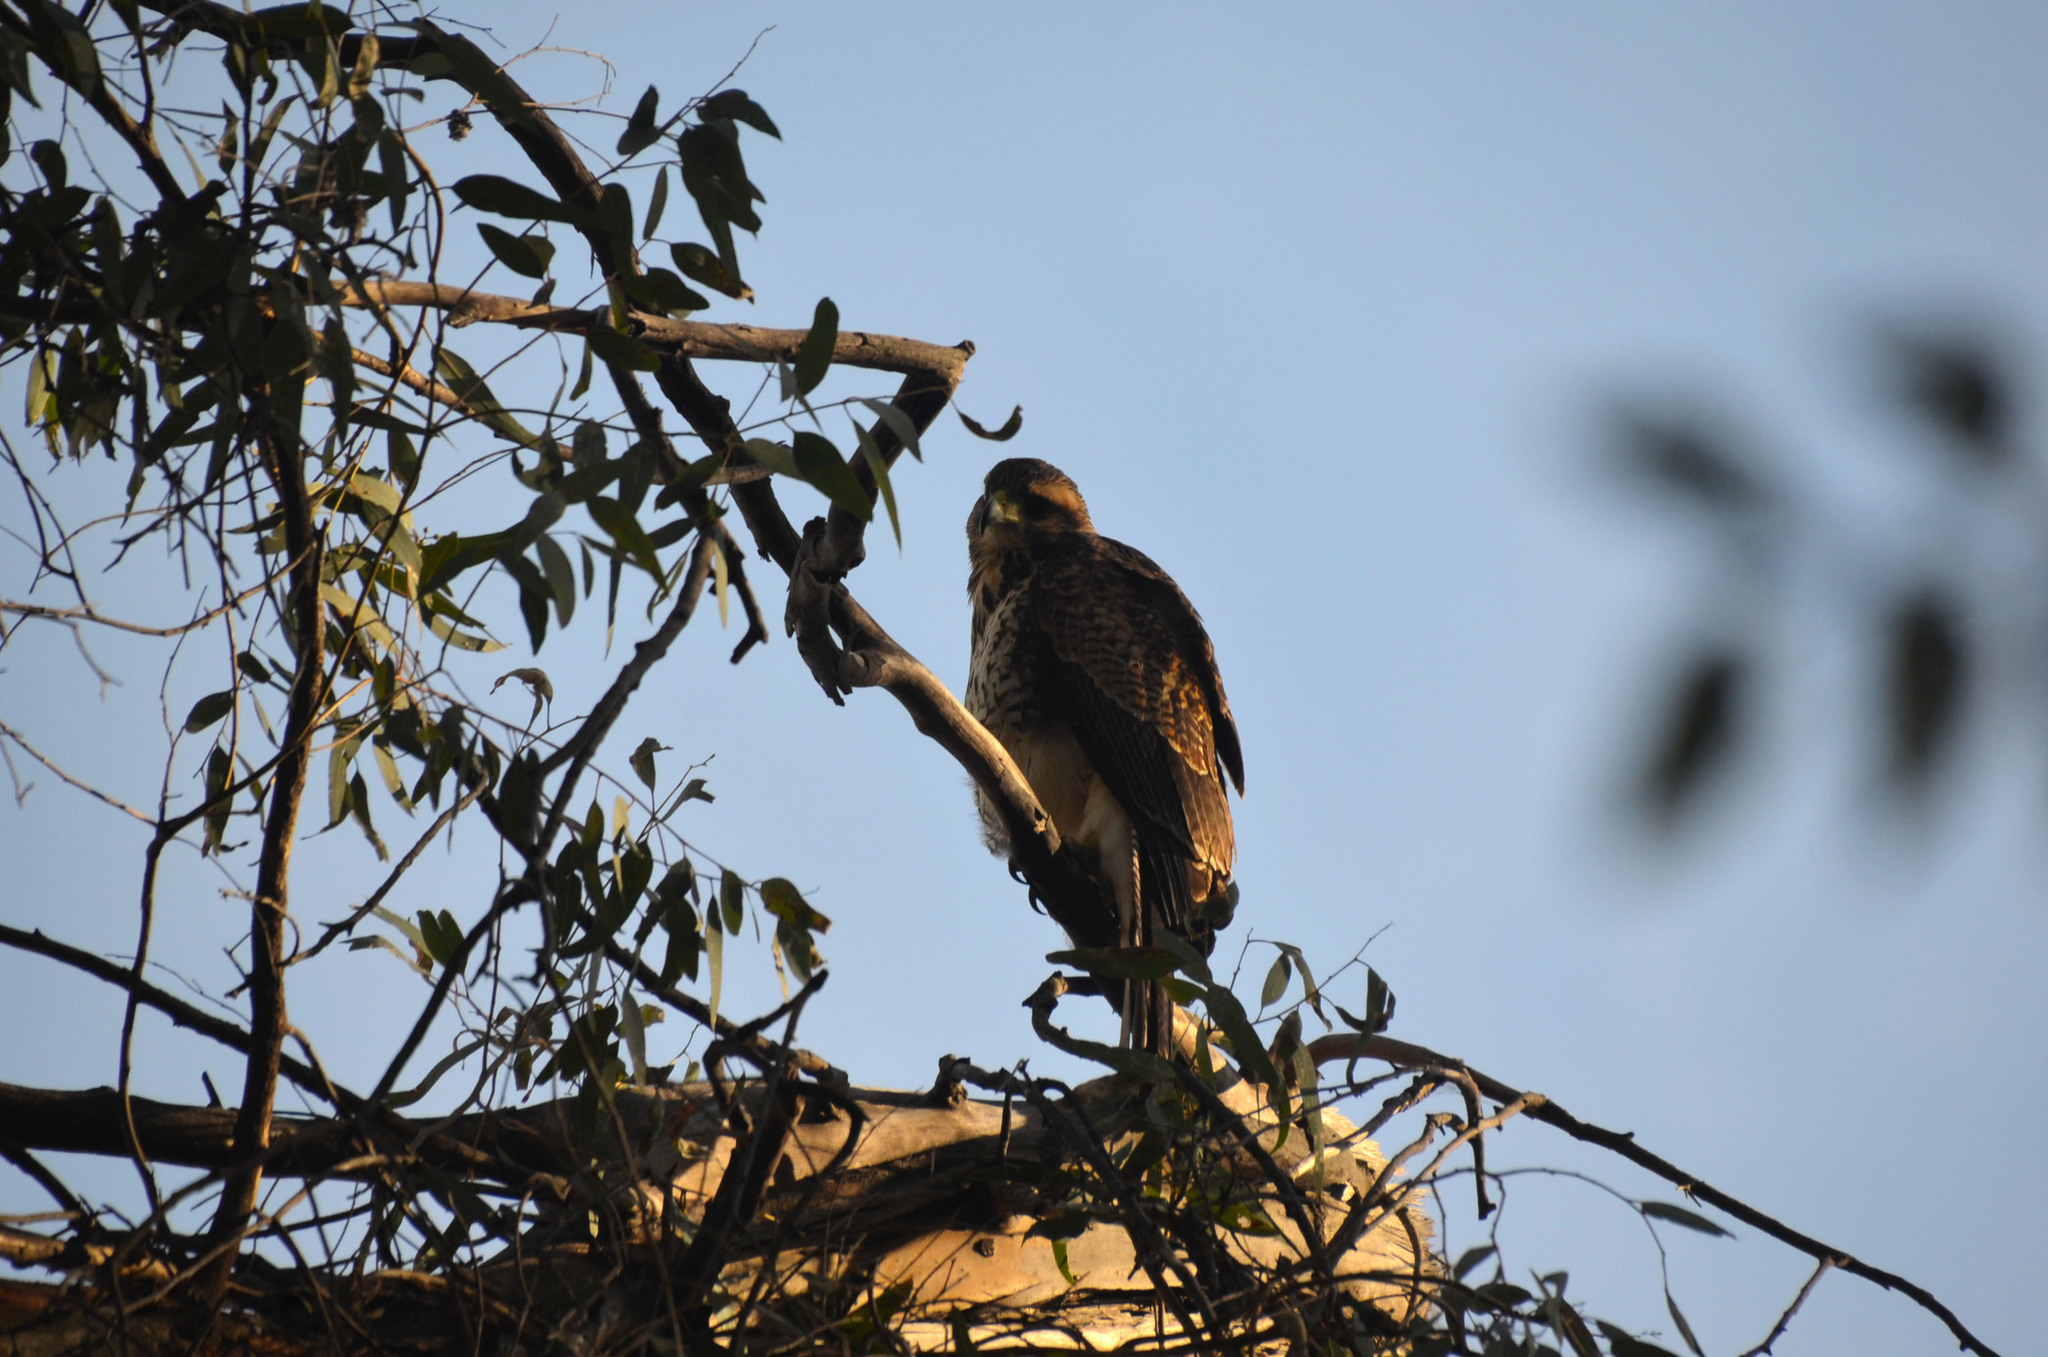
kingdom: Animalia
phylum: Chordata
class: Aves
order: Accipitriformes
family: Accipitridae
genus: Parabuteo
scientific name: Parabuteo unicinctus
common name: Harris's hawk
